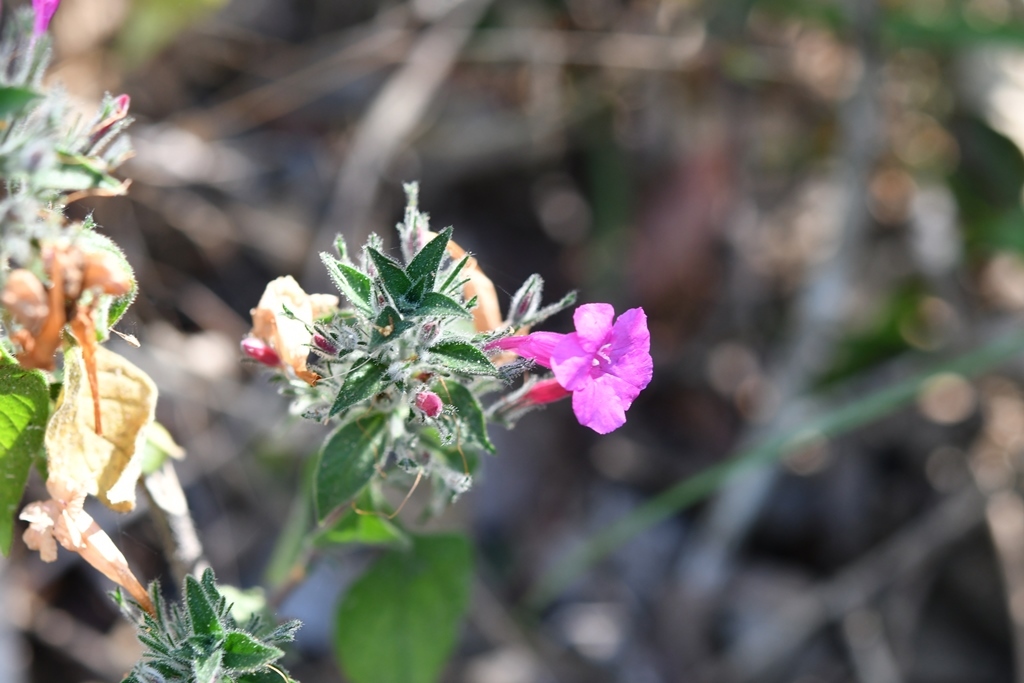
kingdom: Plantae
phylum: Tracheophyta
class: Magnoliopsida
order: Lamiales
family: Acanthaceae
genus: Ruellia
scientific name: Ruellia inundata
